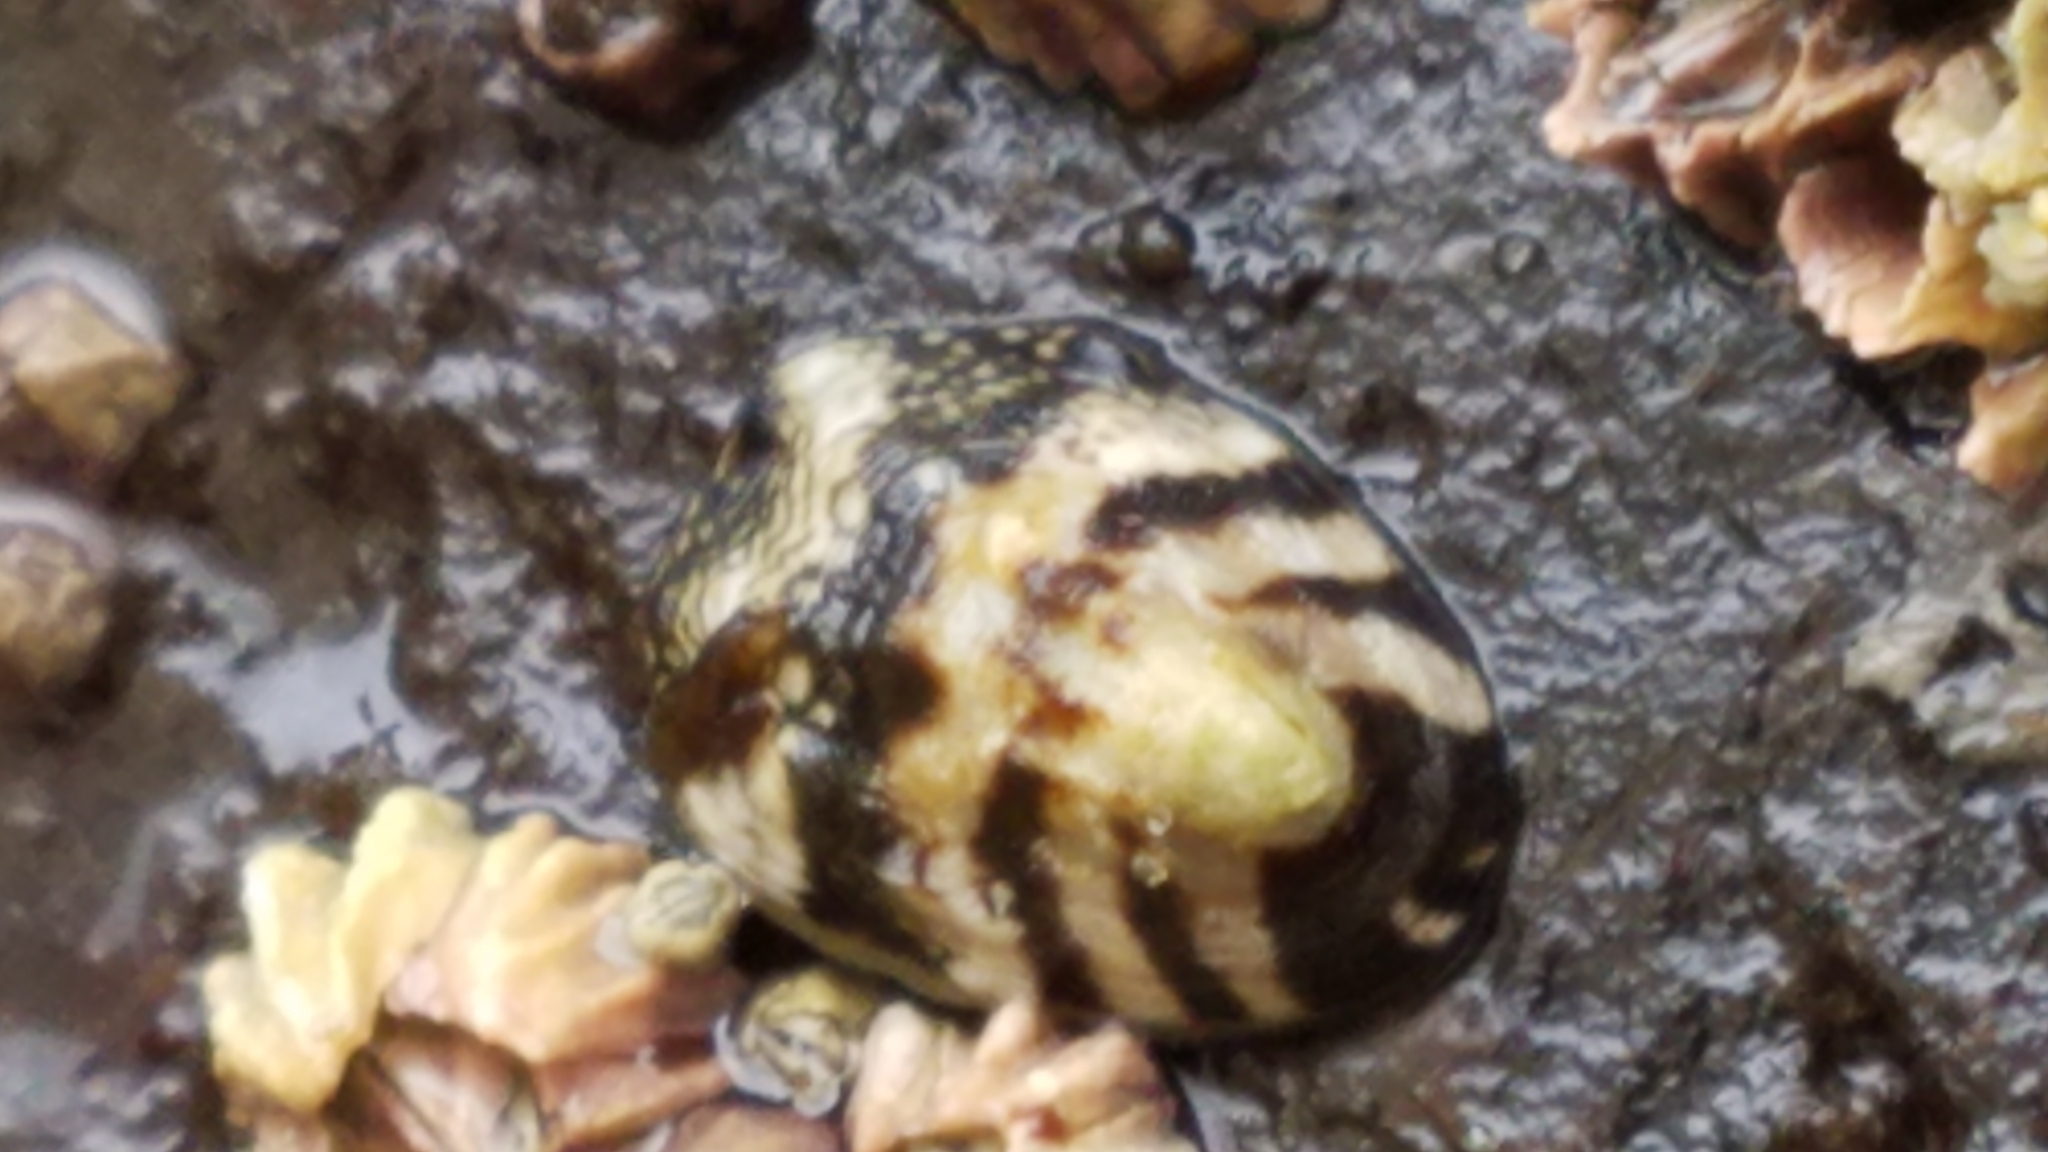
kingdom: Animalia
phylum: Mollusca
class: Gastropoda
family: Lottiidae
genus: Lottia
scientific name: Lottia digitalis
